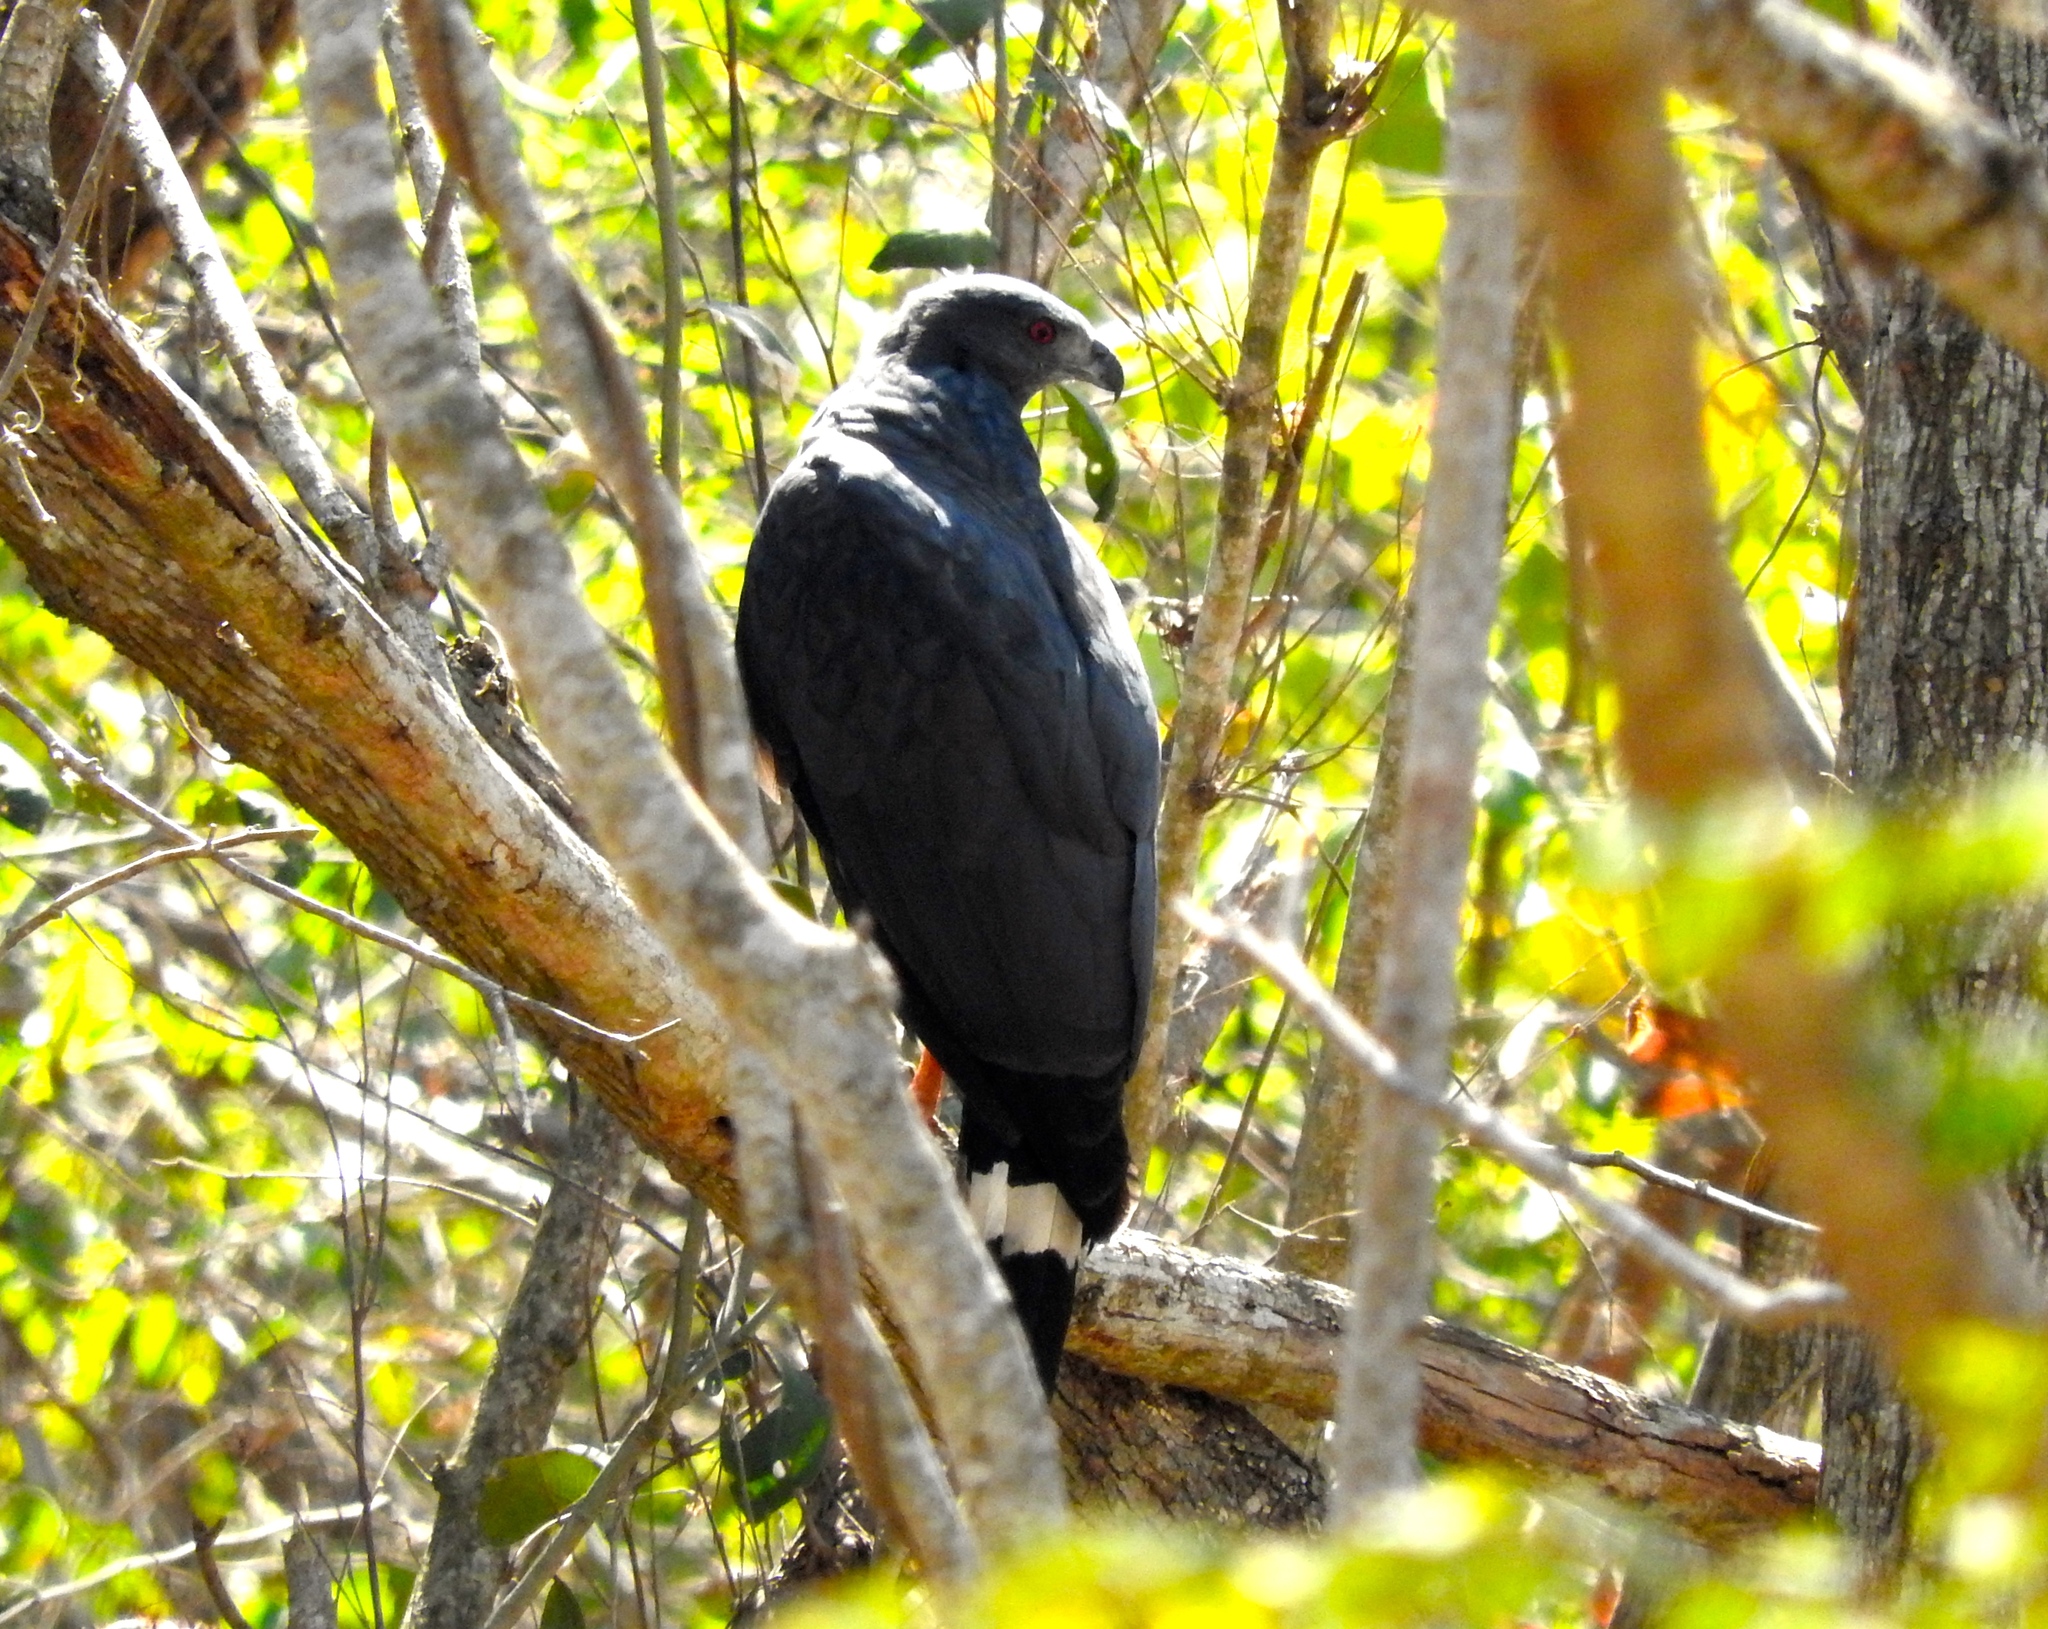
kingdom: Animalia
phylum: Chordata
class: Aves
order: Accipitriformes
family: Accipitridae
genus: Geranospiza
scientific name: Geranospiza caerulescens
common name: Crane hawk
